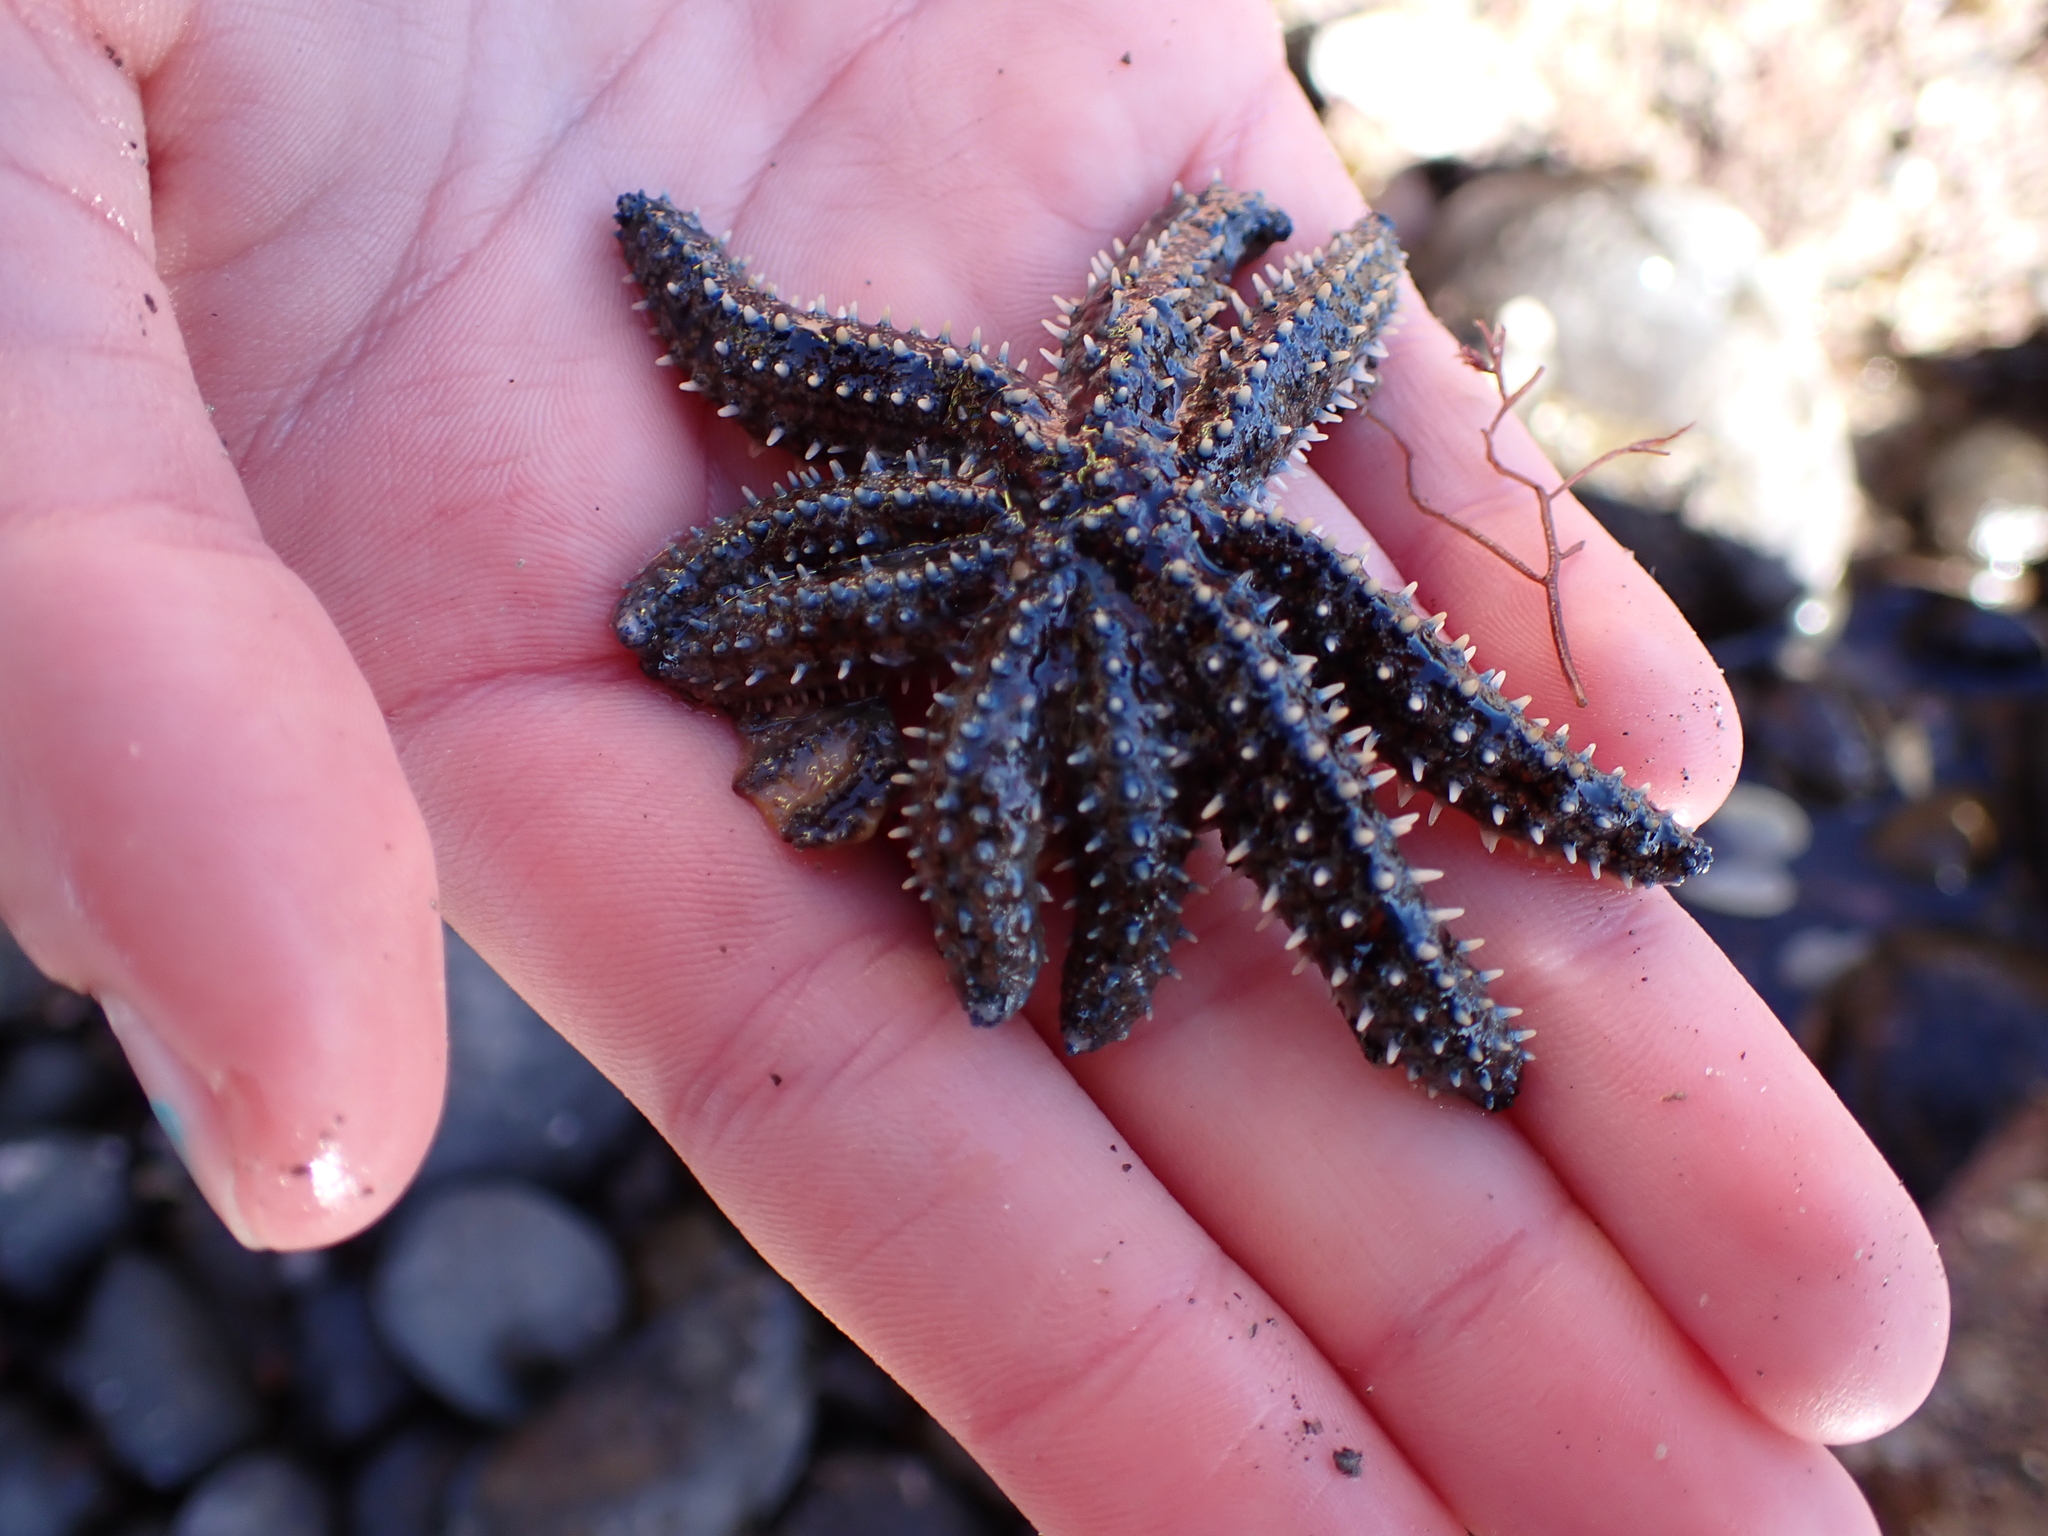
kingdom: Animalia
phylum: Echinodermata
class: Asteroidea
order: Forcipulatida
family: Asteriidae
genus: Coscinasterias
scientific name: Coscinasterias muricata
